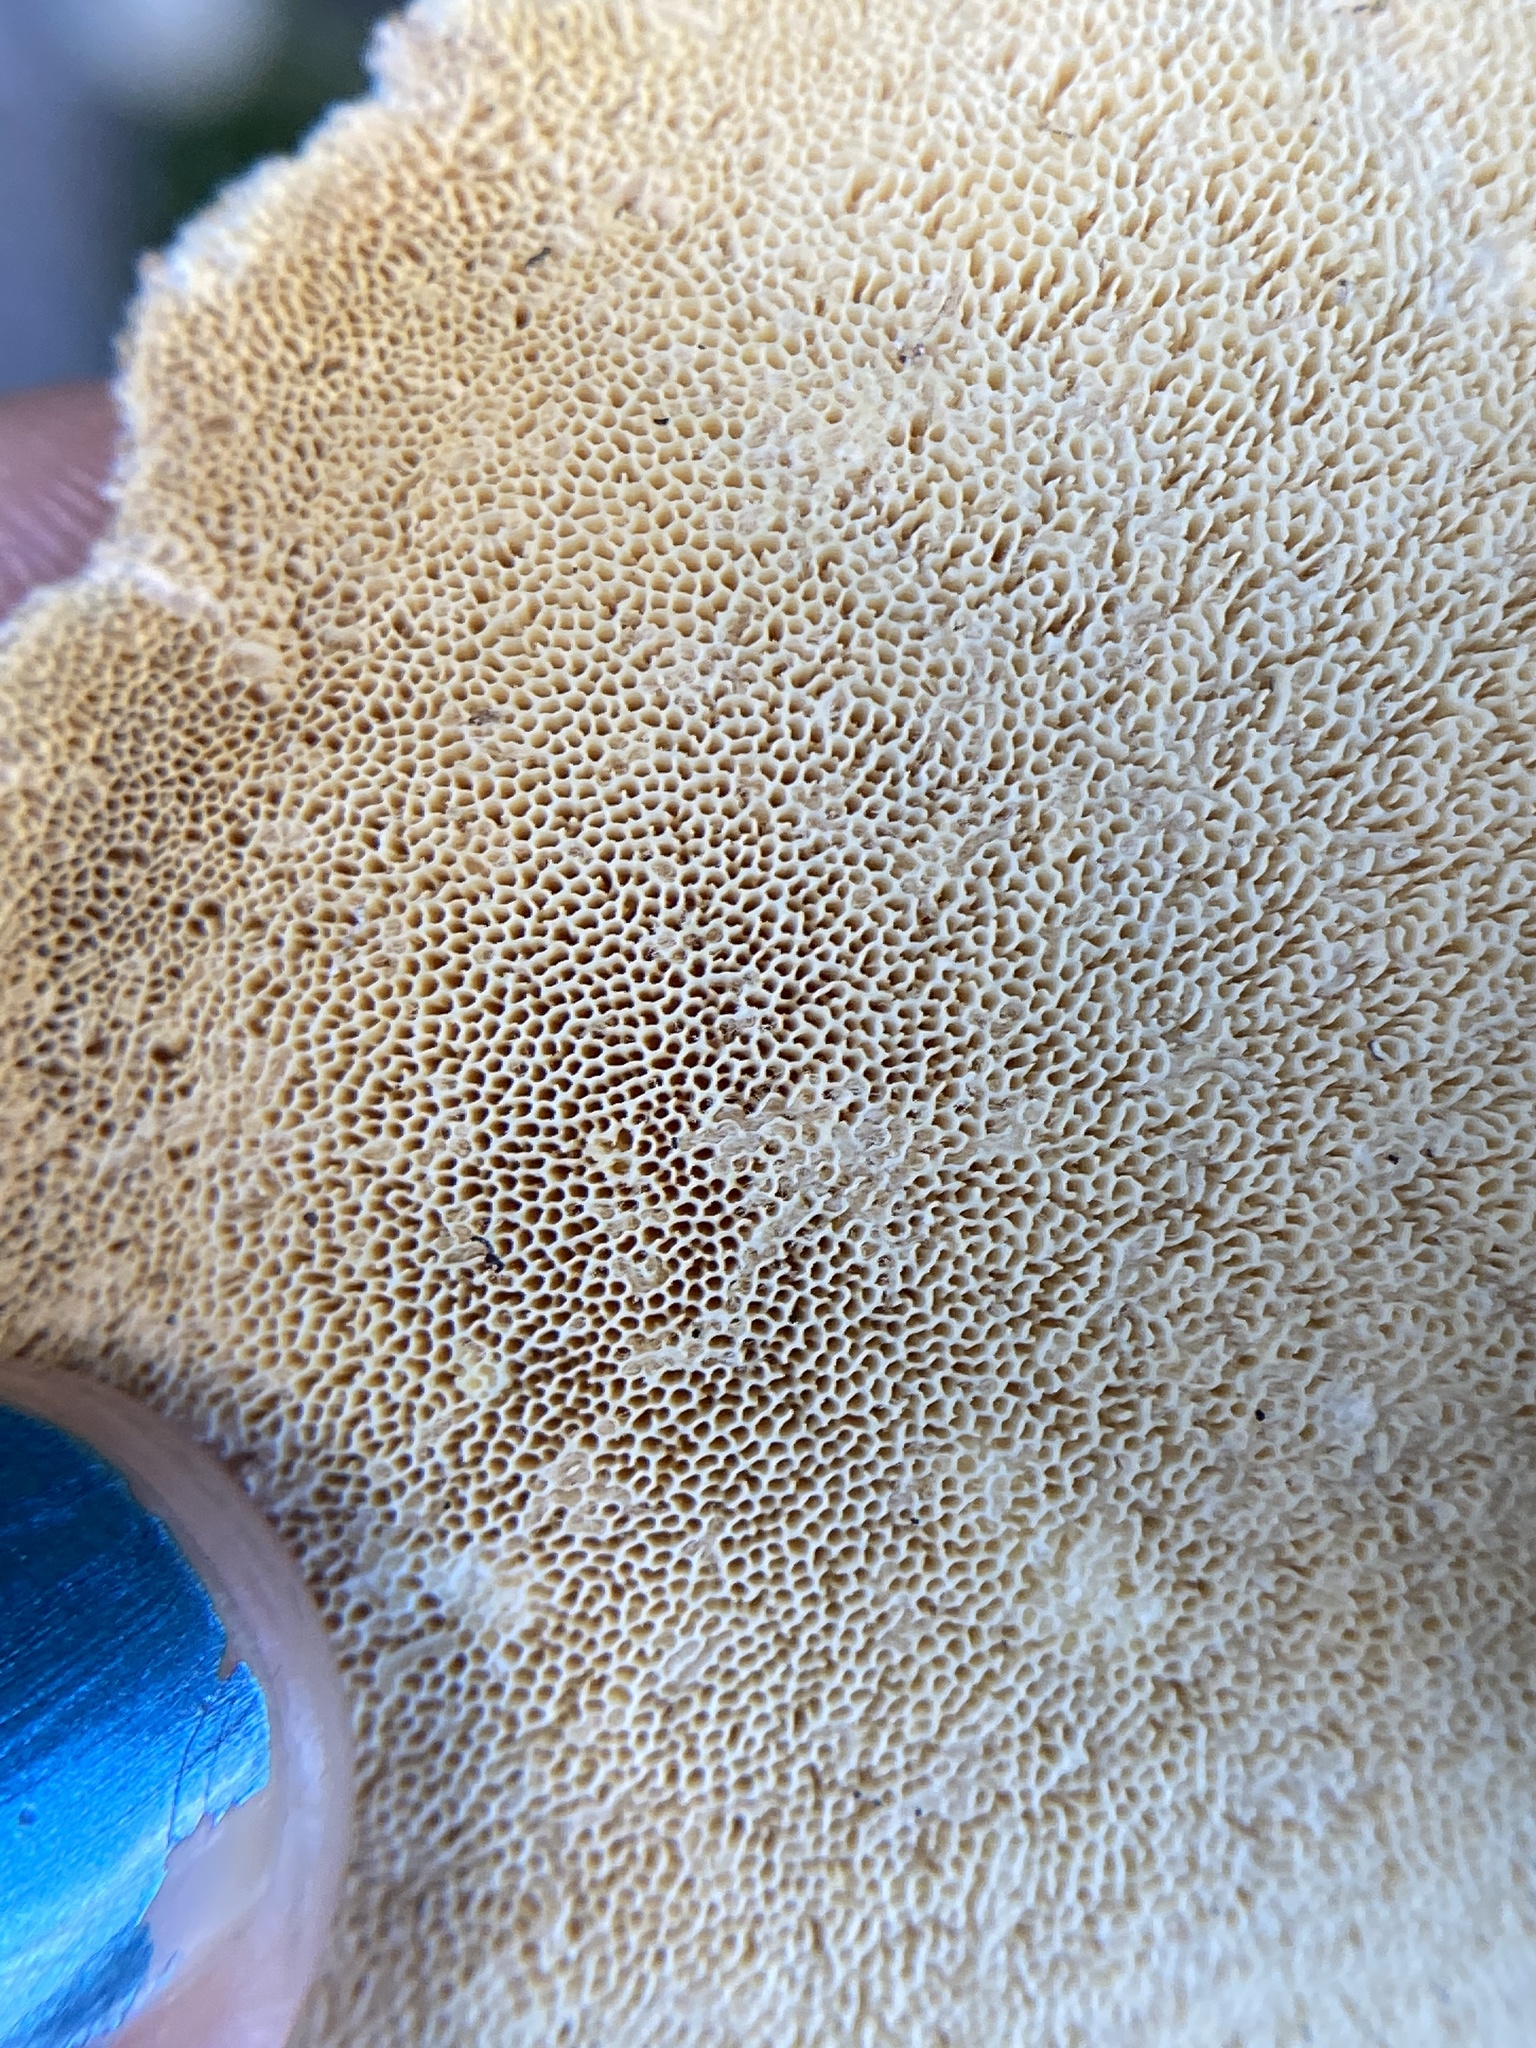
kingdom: Fungi
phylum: Basidiomycota
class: Agaricomycetes
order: Polyporales
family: Polyporaceae
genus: Trametes
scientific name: Trametes hirsuta
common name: Hairy bracket
